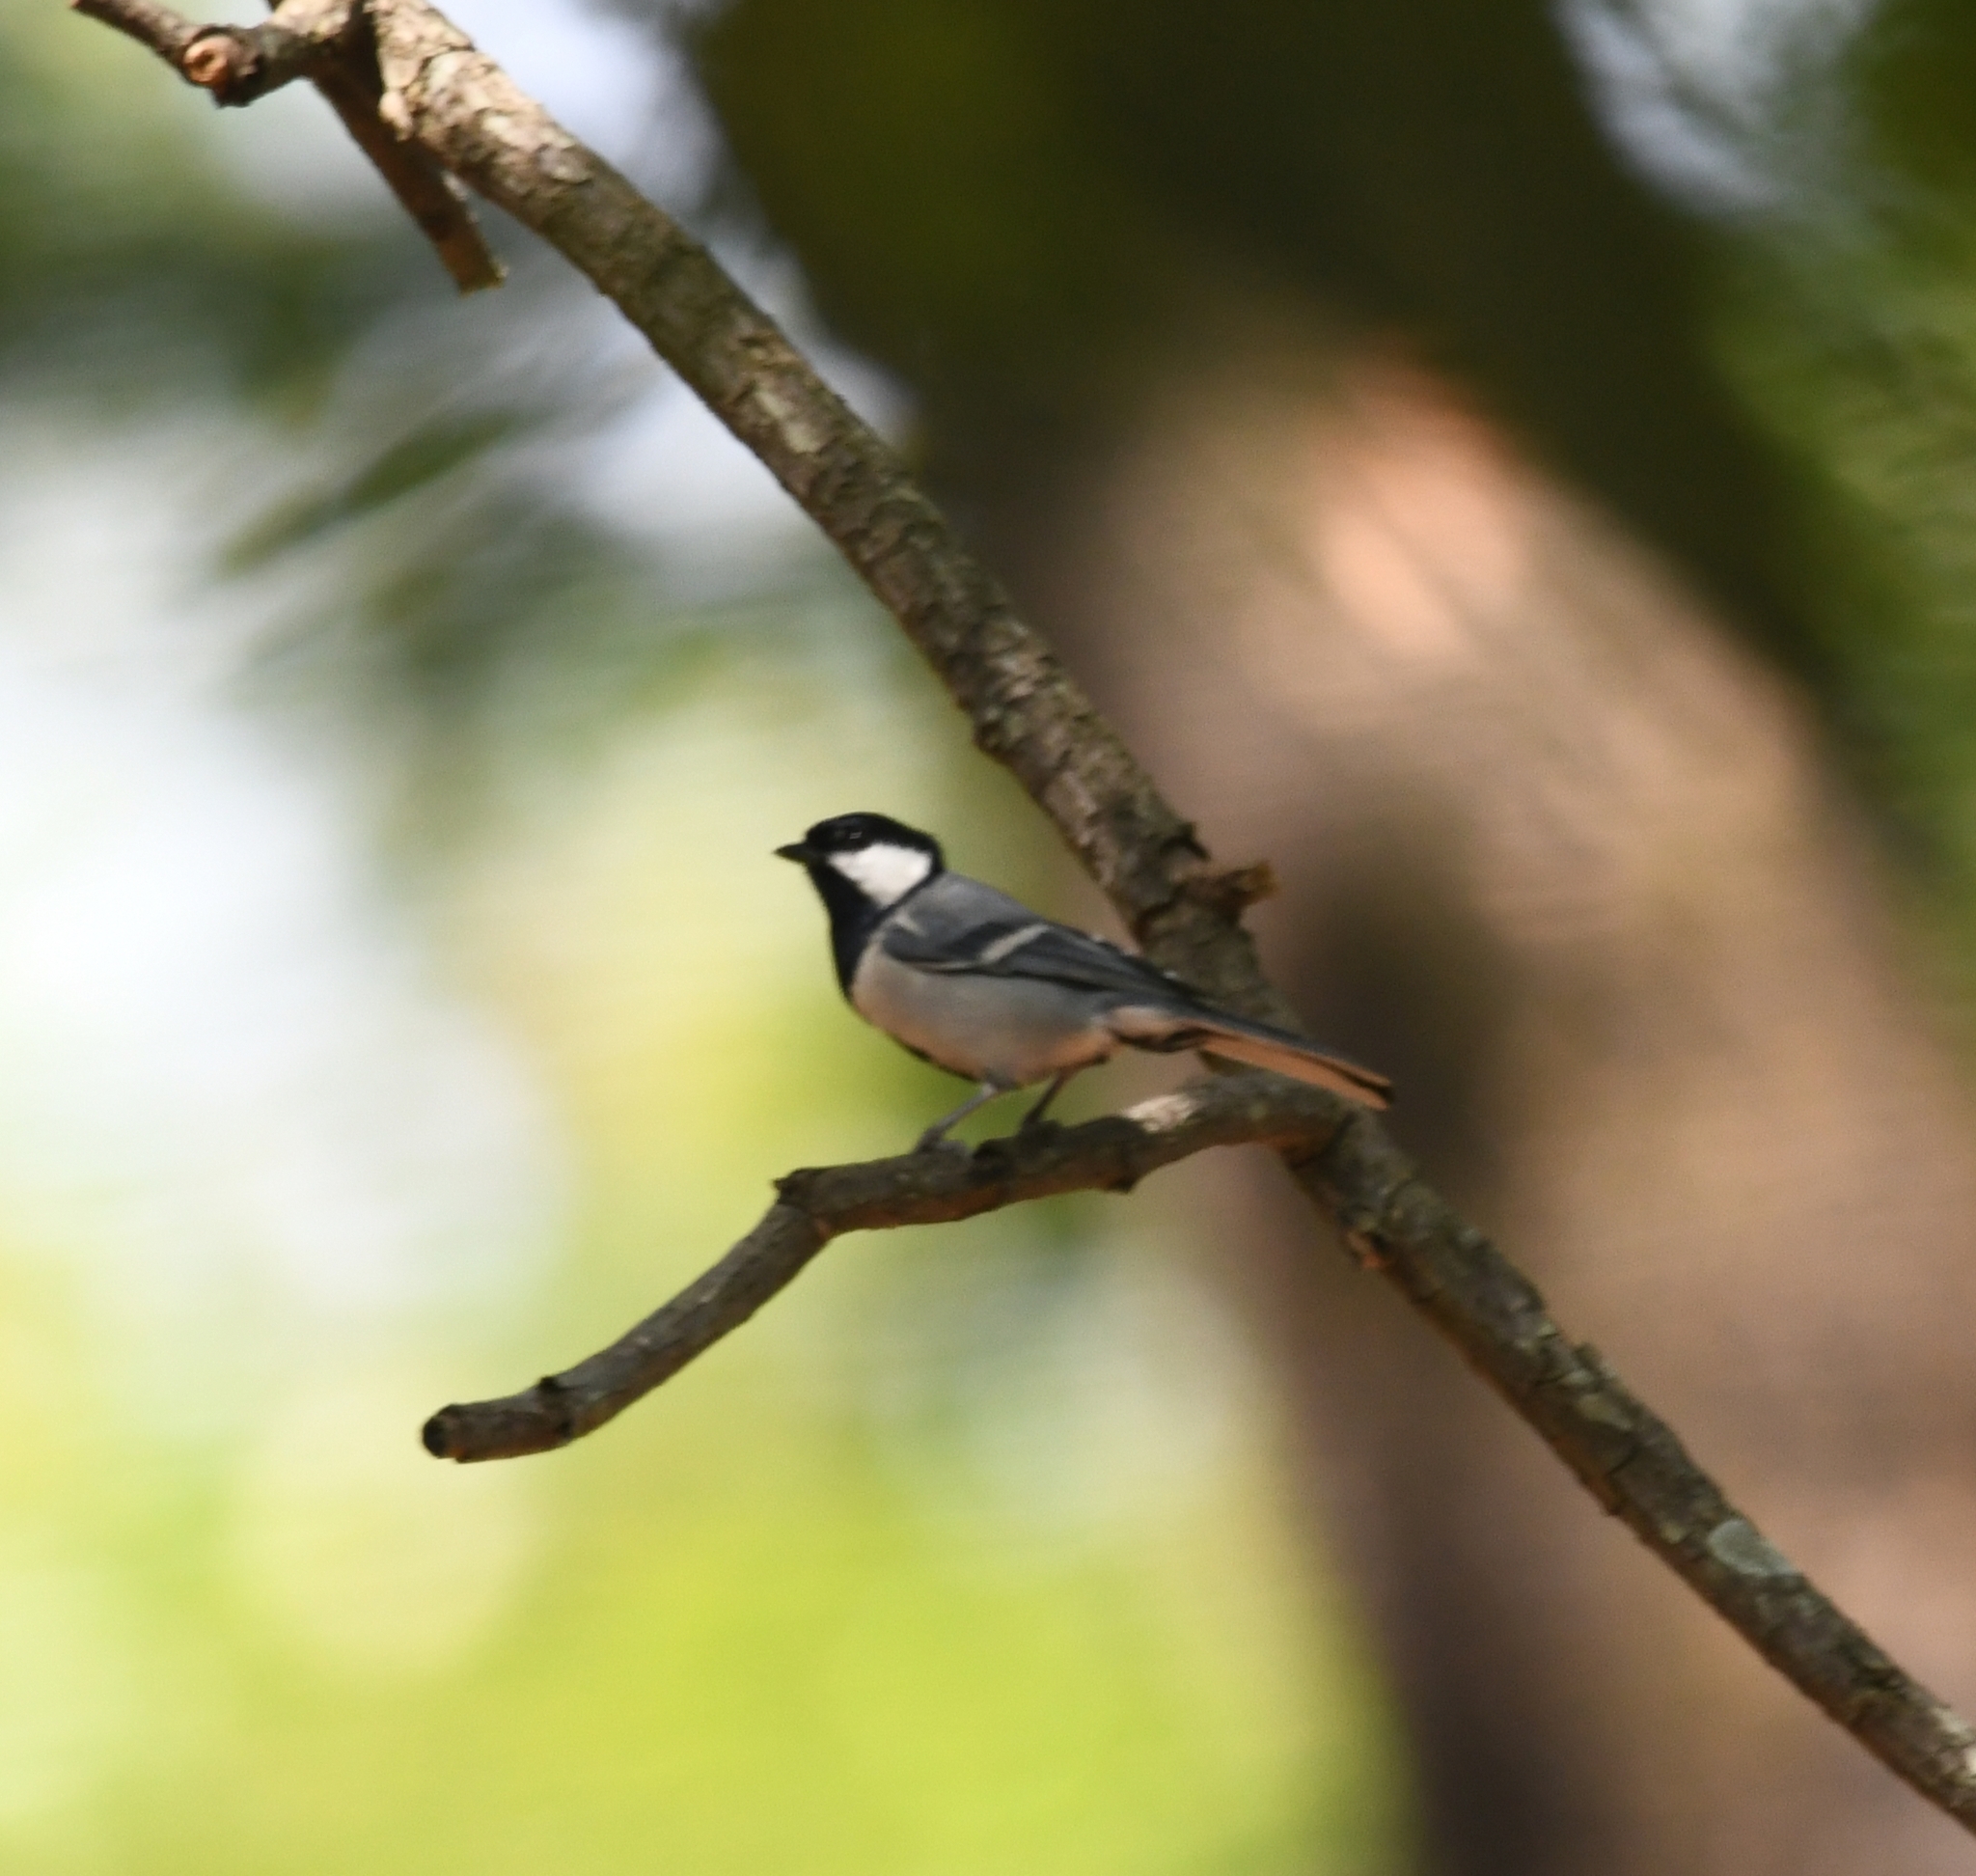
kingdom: Animalia
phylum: Chordata
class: Aves
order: Passeriformes
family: Paridae
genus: Parus
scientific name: Parus cinereus
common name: Cinereous tit
